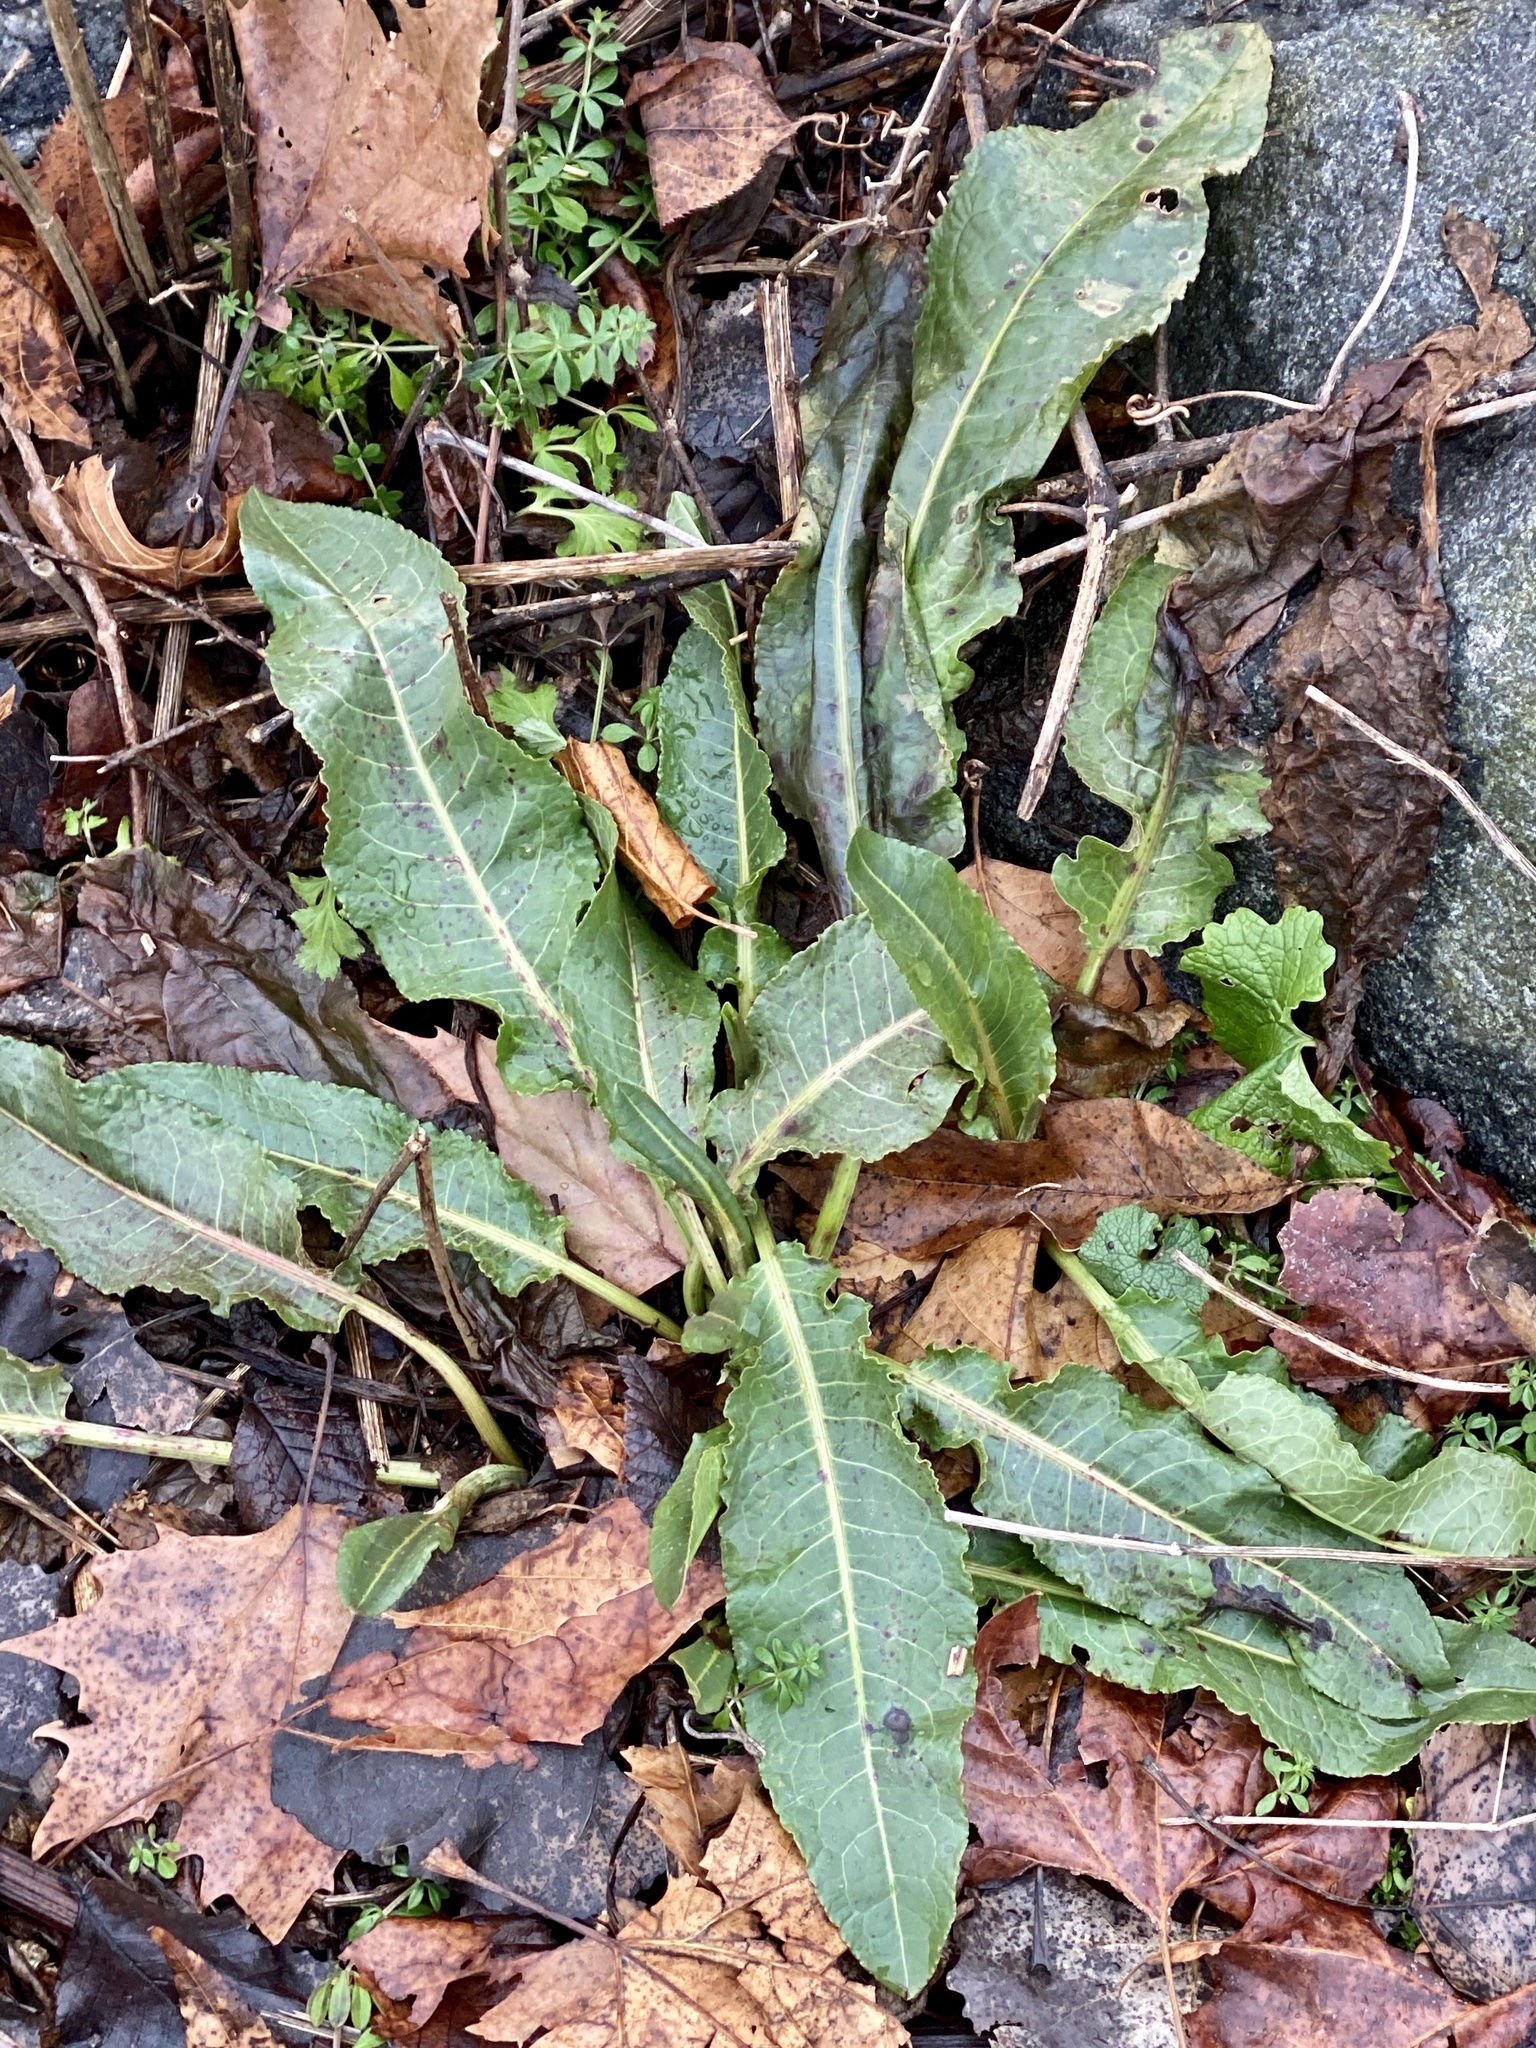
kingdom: Plantae
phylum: Tracheophyta
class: Magnoliopsida
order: Caryophyllales
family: Polygonaceae
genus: Rumex
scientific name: Rumex crispus
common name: Curled dock
